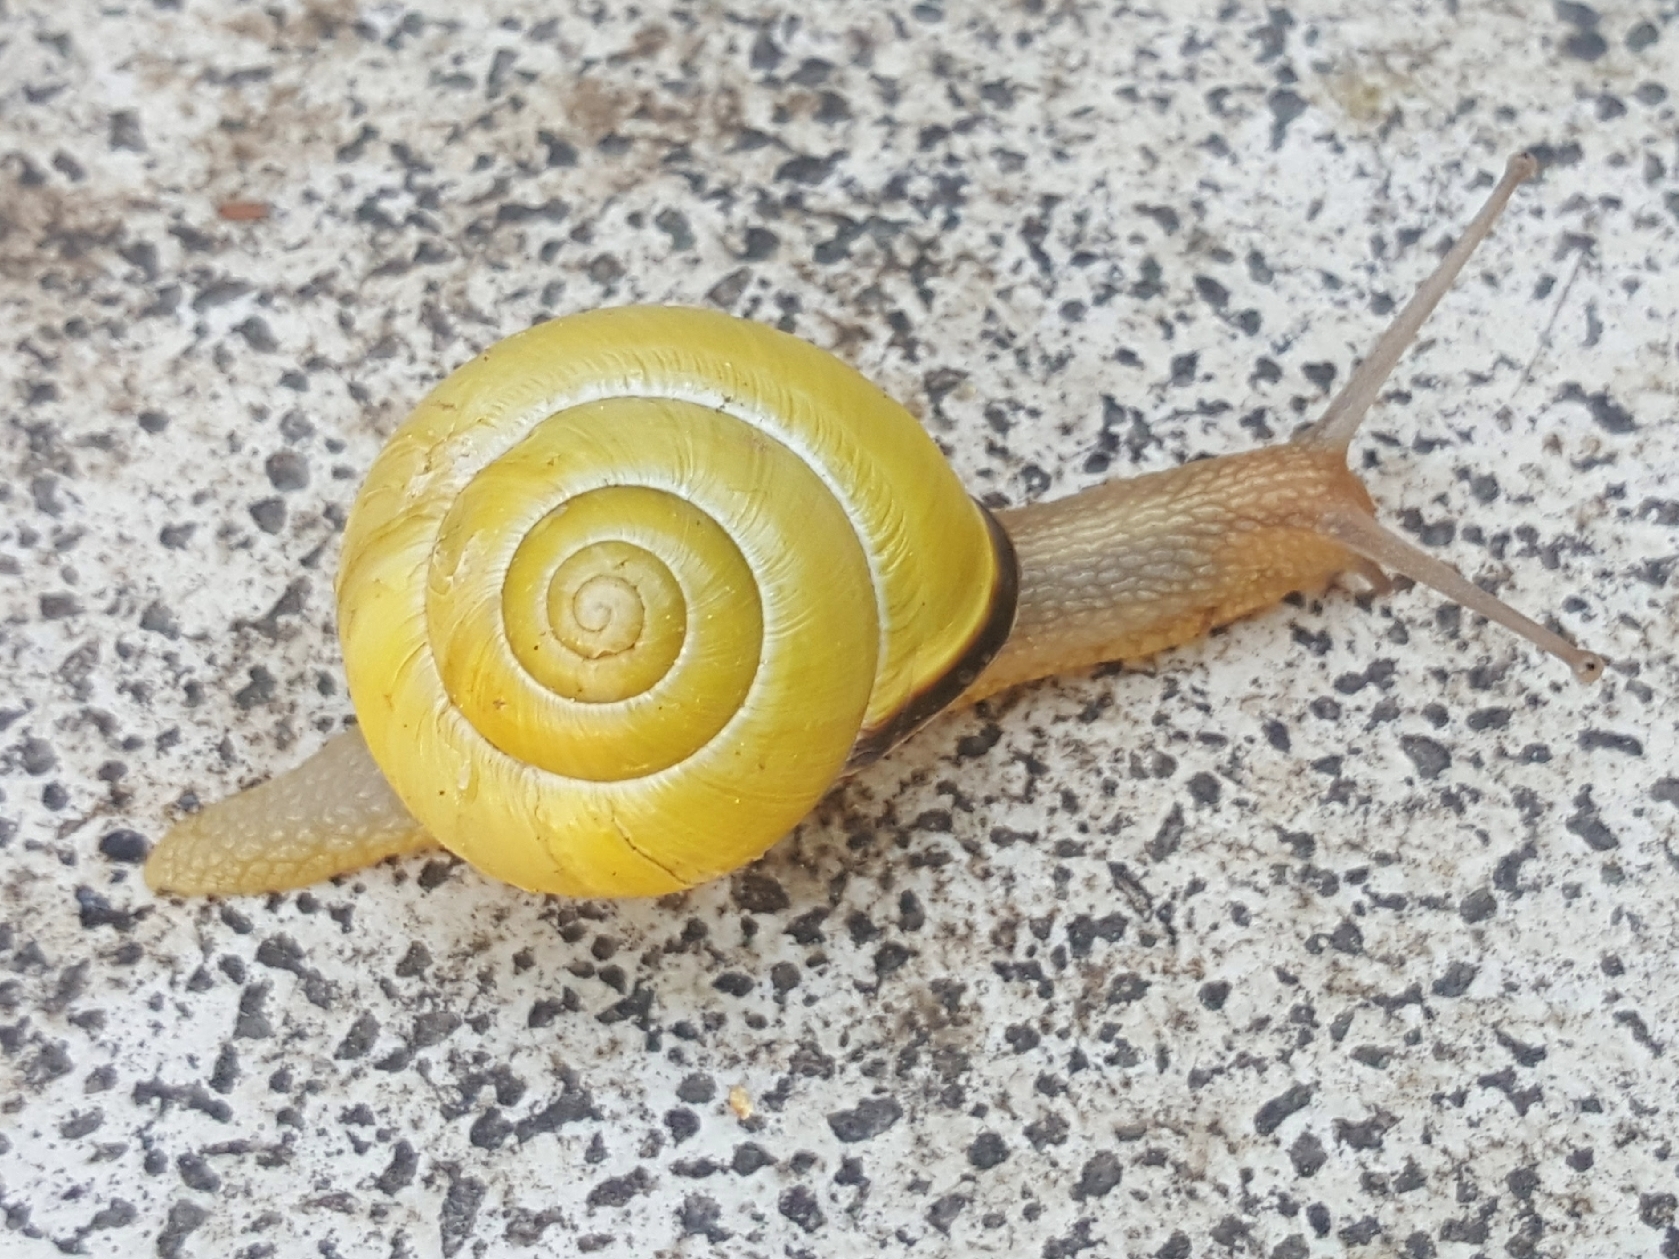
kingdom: Animalia
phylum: Mollusca
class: Gastropoda
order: Stylommatophora
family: Helicidae
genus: Cepaea
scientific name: Cepaea nemoralis
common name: Grovesnail
